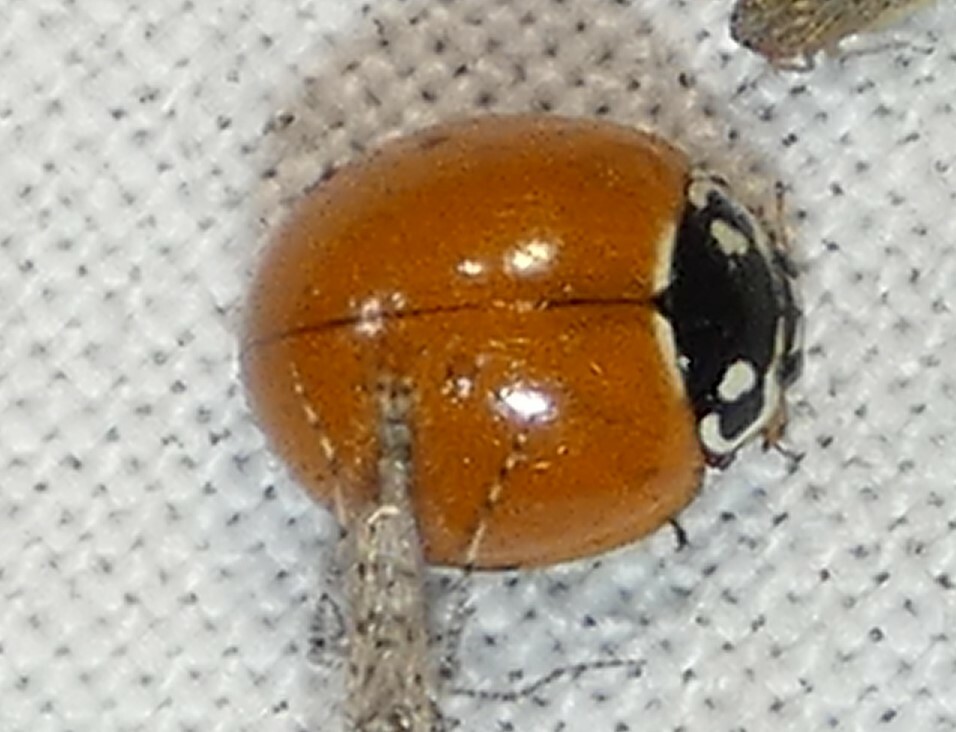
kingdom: Animalia
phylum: Arthropoda
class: Insecta
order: Coleoptera
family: Coccinellidae
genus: Cycloneda
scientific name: Cycloneda sanguinea
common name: Ladybird beetle
